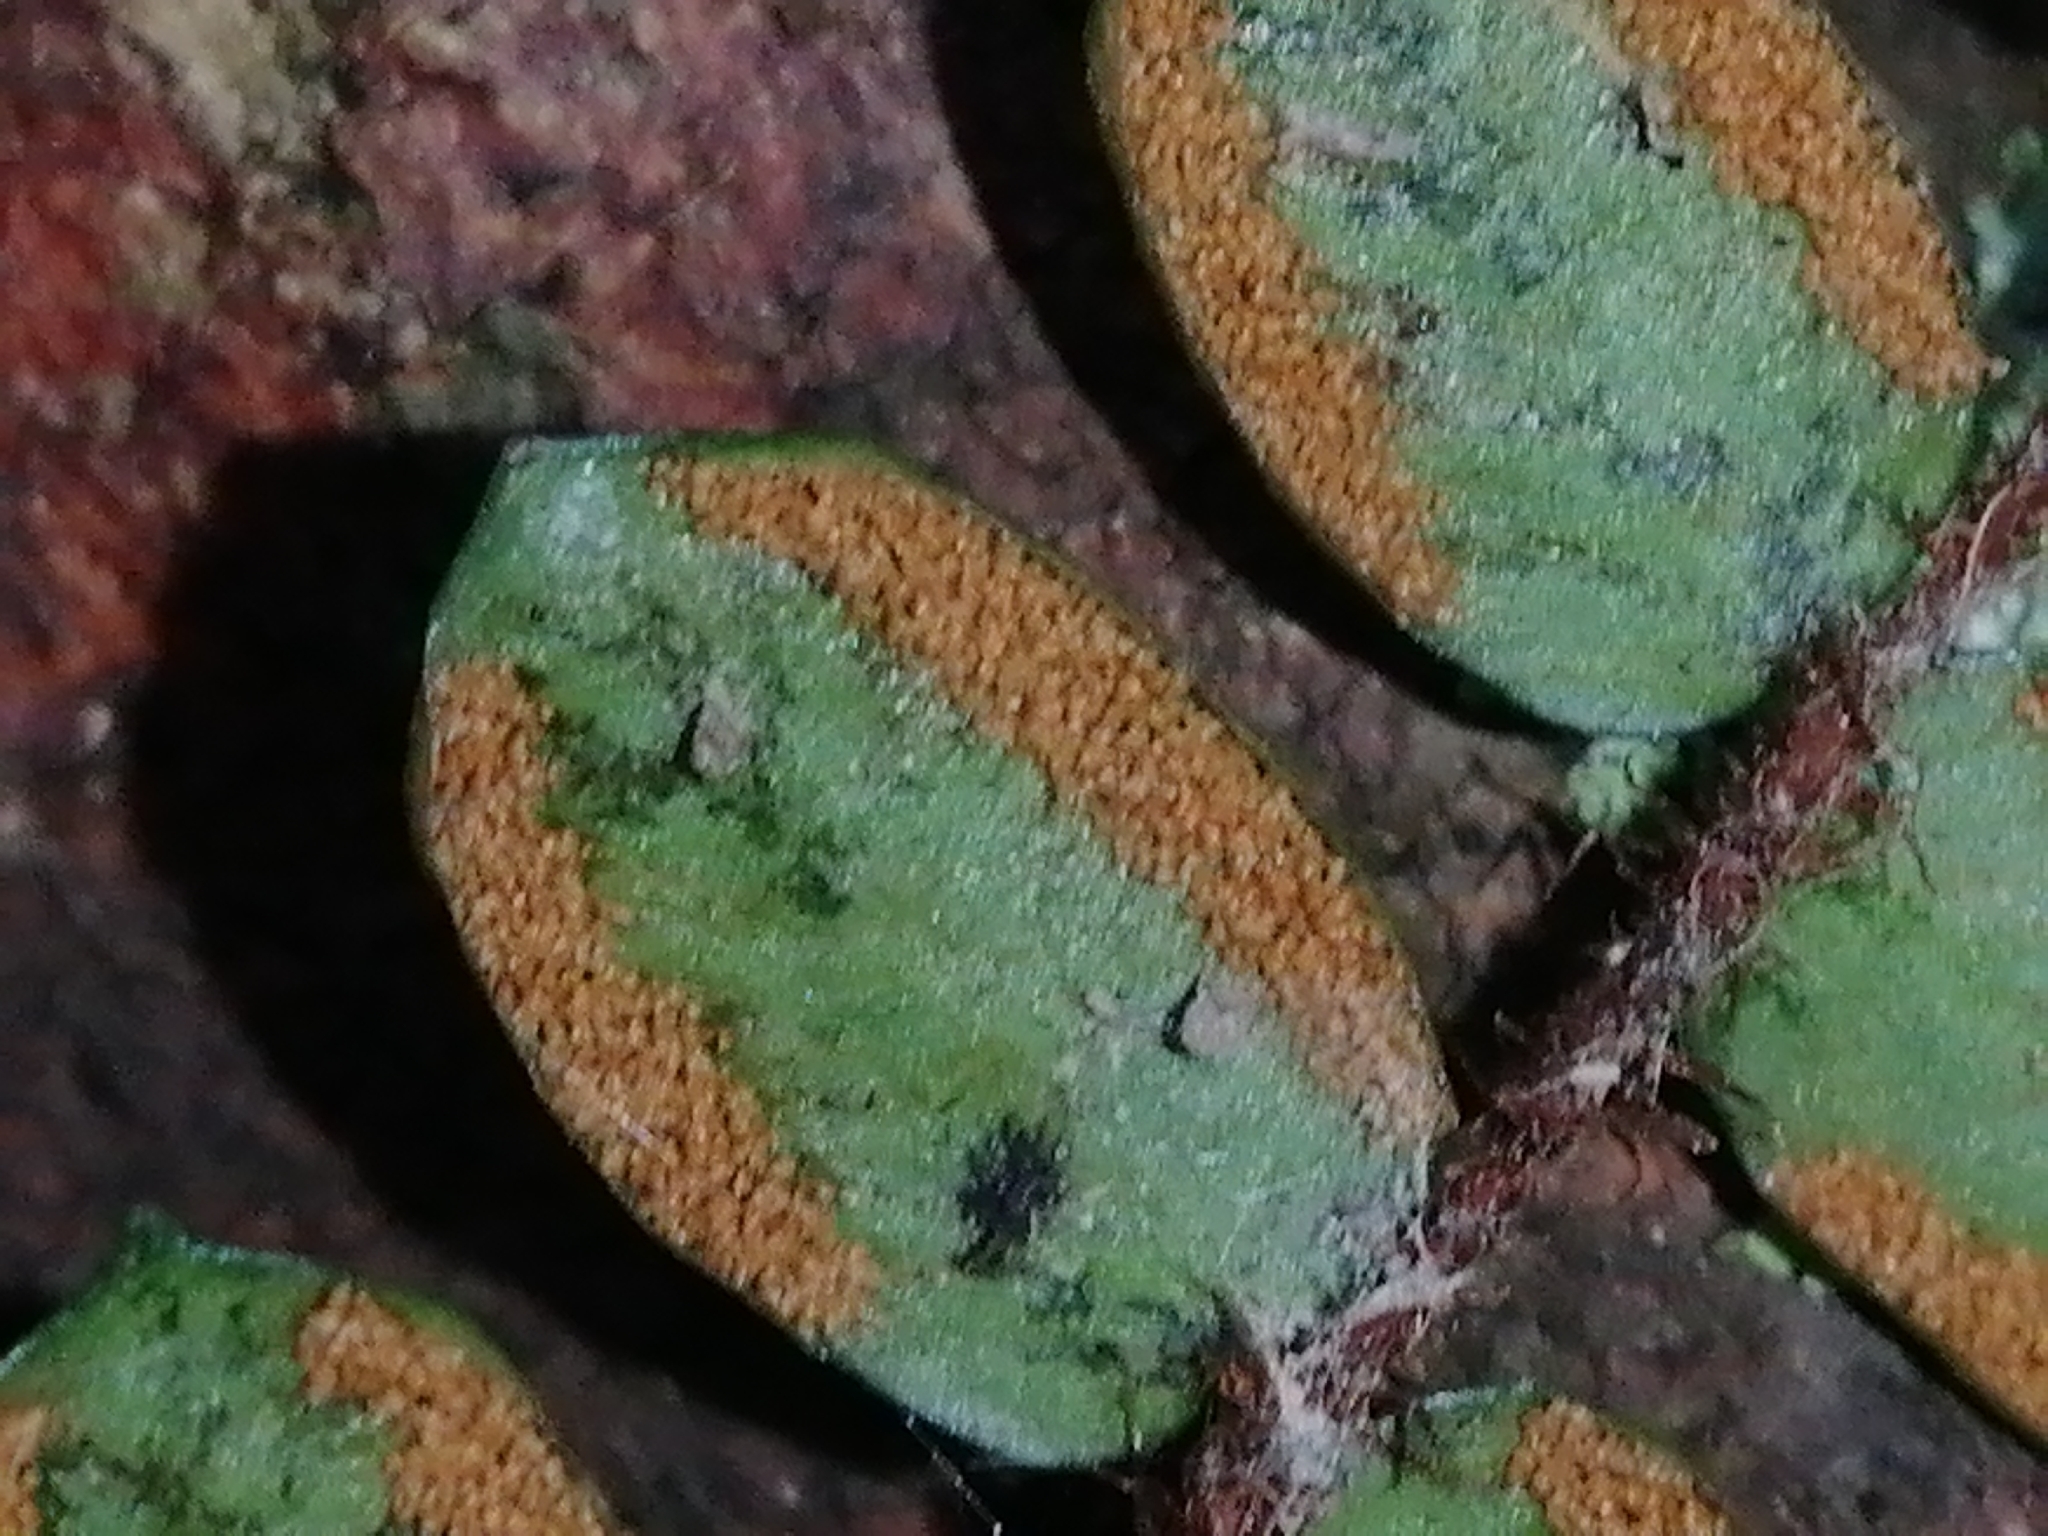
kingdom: Plantae
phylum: Tracheophyta
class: Polypodiopsida
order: Polypodiales
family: Pteridaceae
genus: Pellaea
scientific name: Pellaea rotundifolia
